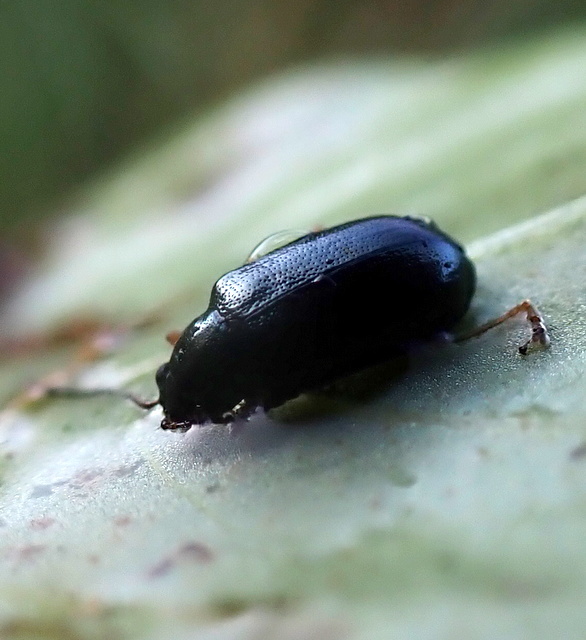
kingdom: Animalia
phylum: Arthropoda
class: Insecta
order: Coleoptera
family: Chrysomelidae
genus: Lysathia
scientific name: Lysathia ludoviciana
